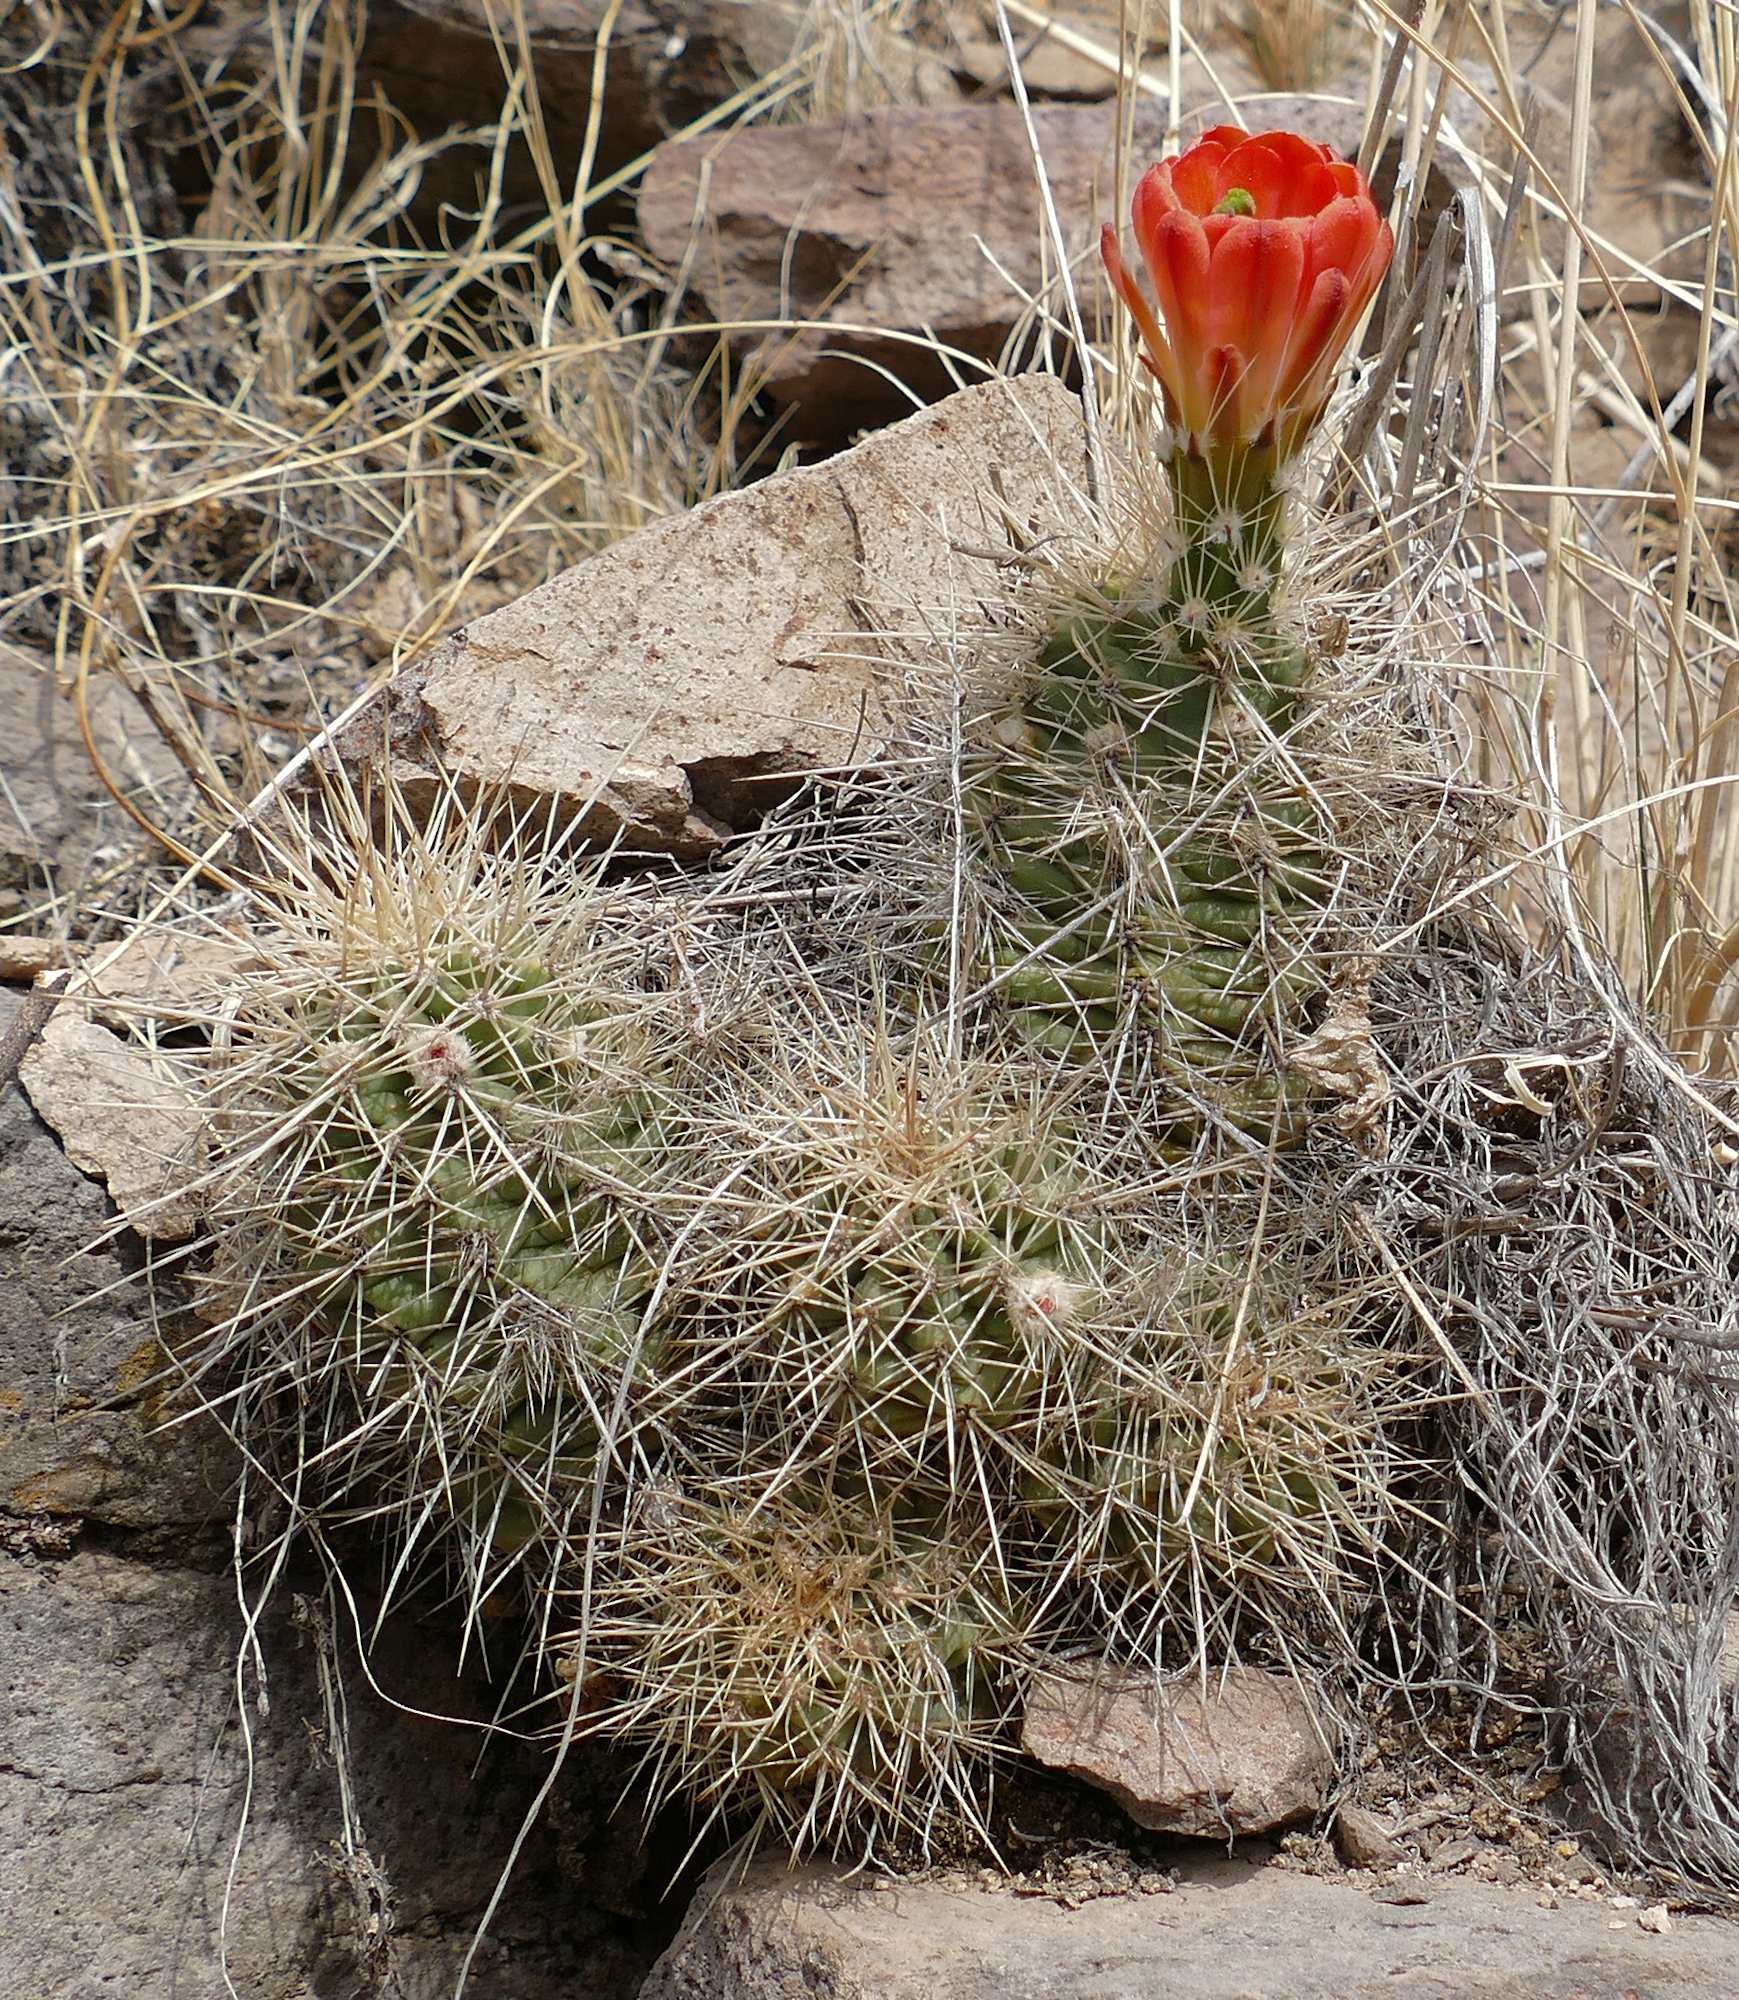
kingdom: Plantae
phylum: Tracheophyta
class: Magnoliopsida
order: Caryophyllales
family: Cactaceae
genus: Echinocereus
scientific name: Echinocereus coccineus
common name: Scarlet hedgehog cactus
